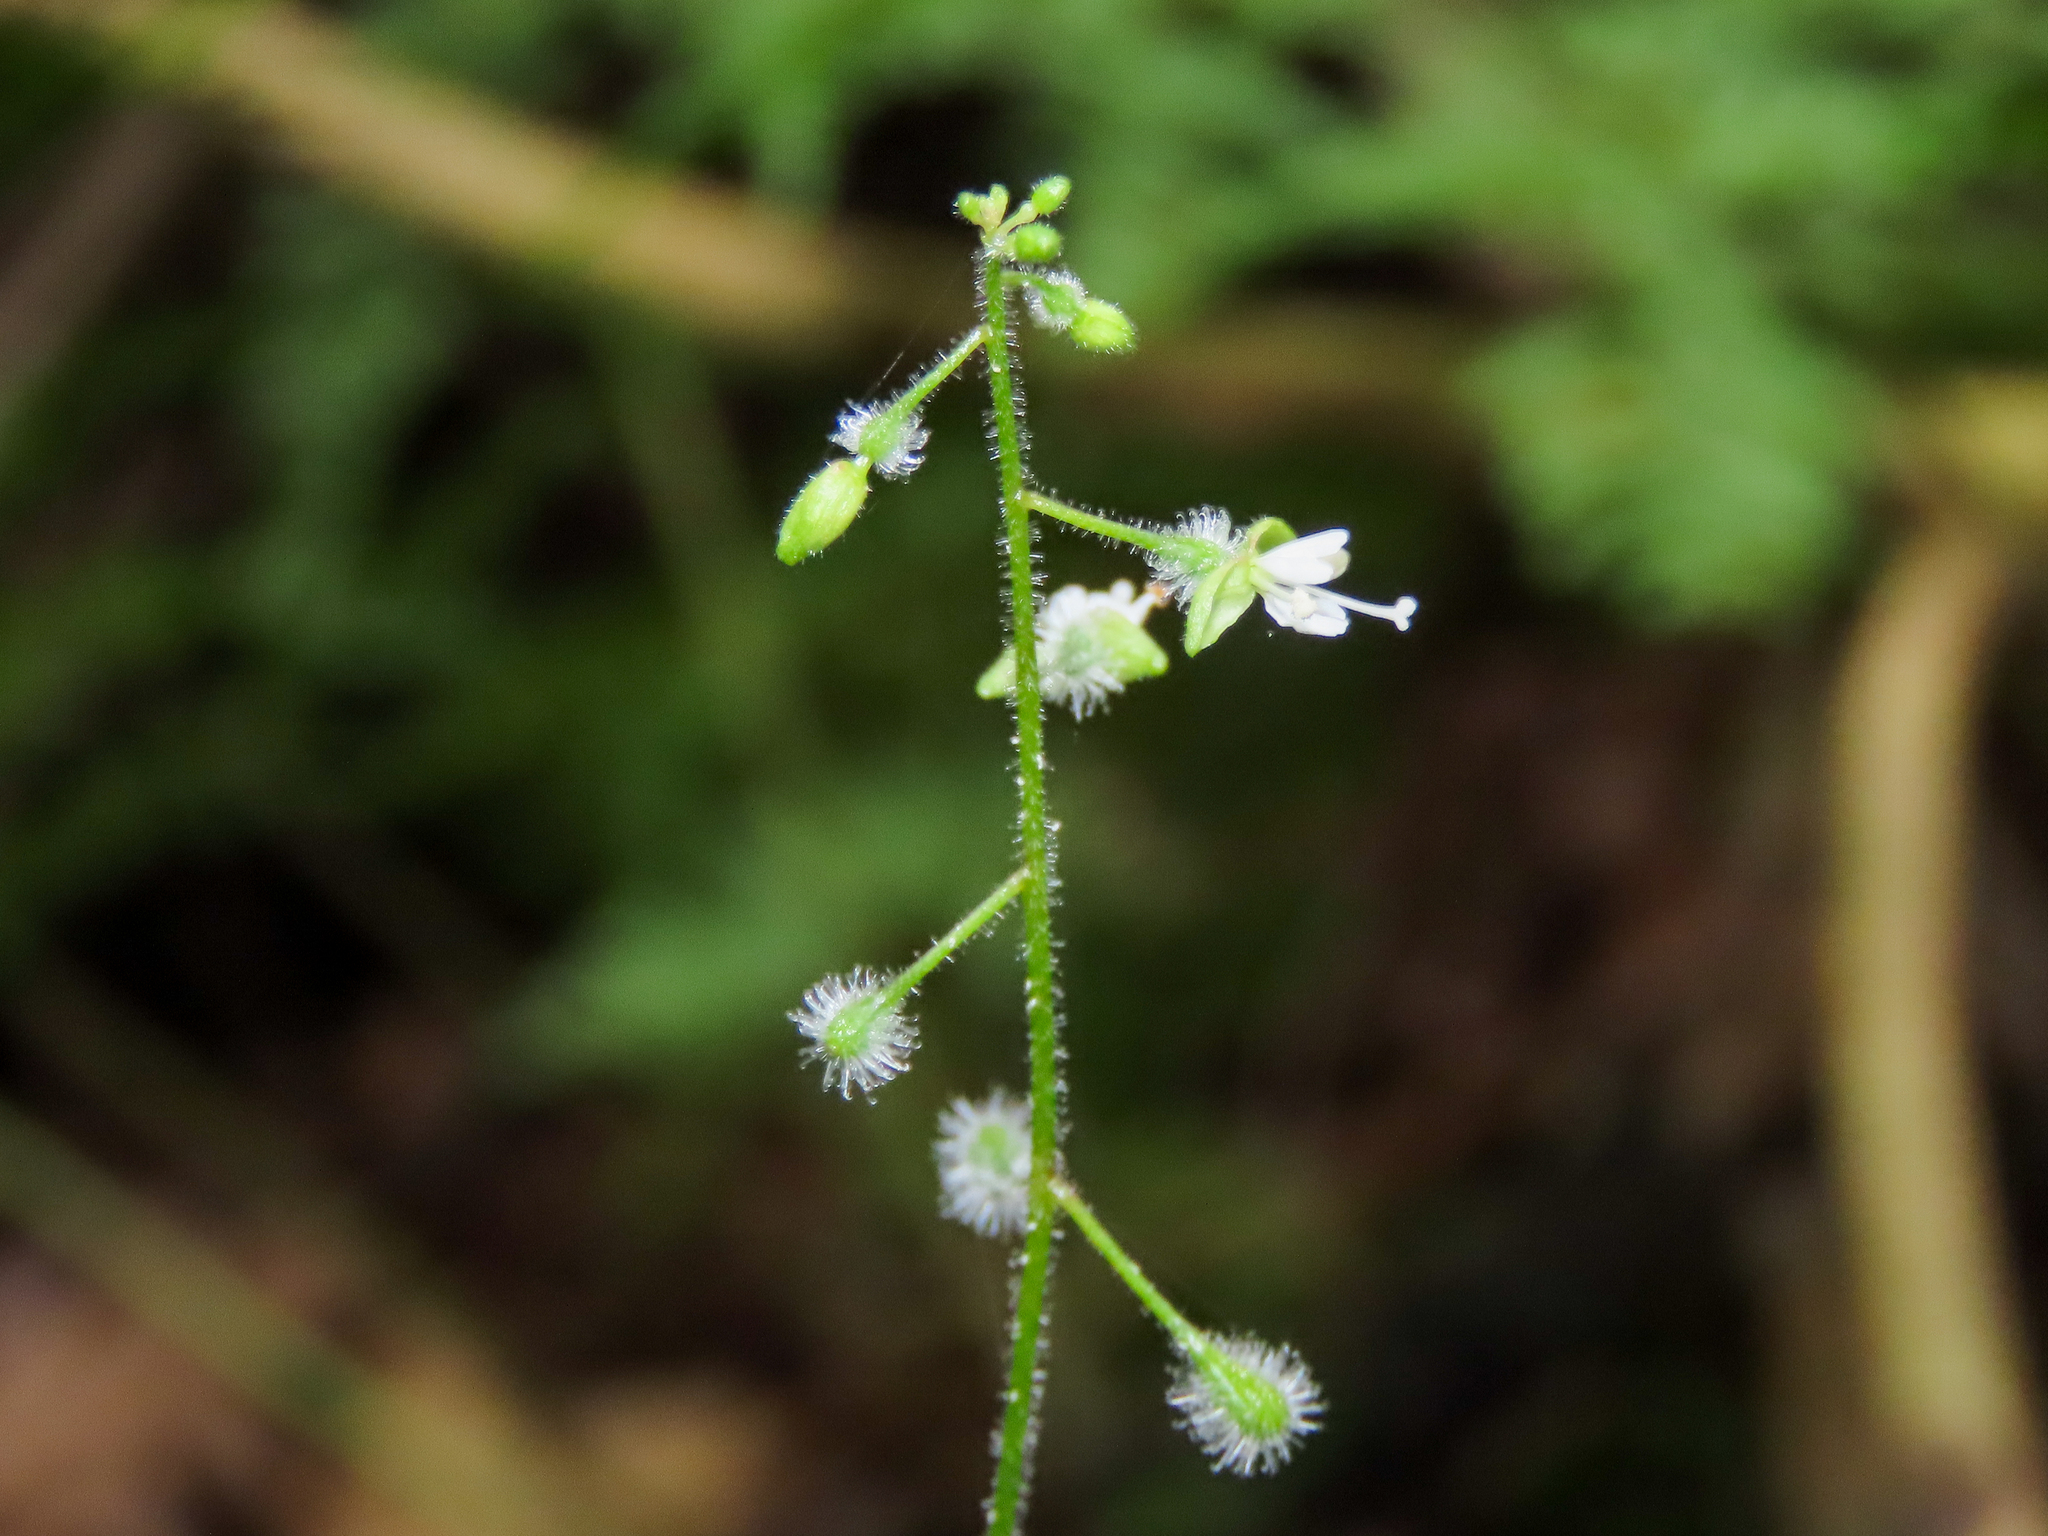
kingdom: Plantae
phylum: Tracheophyta
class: Magnoliopsida
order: Myrtales
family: Onagraceae
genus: Circaea
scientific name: Circaea canadensis
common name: Broad-leaved enchanter's nightshade
